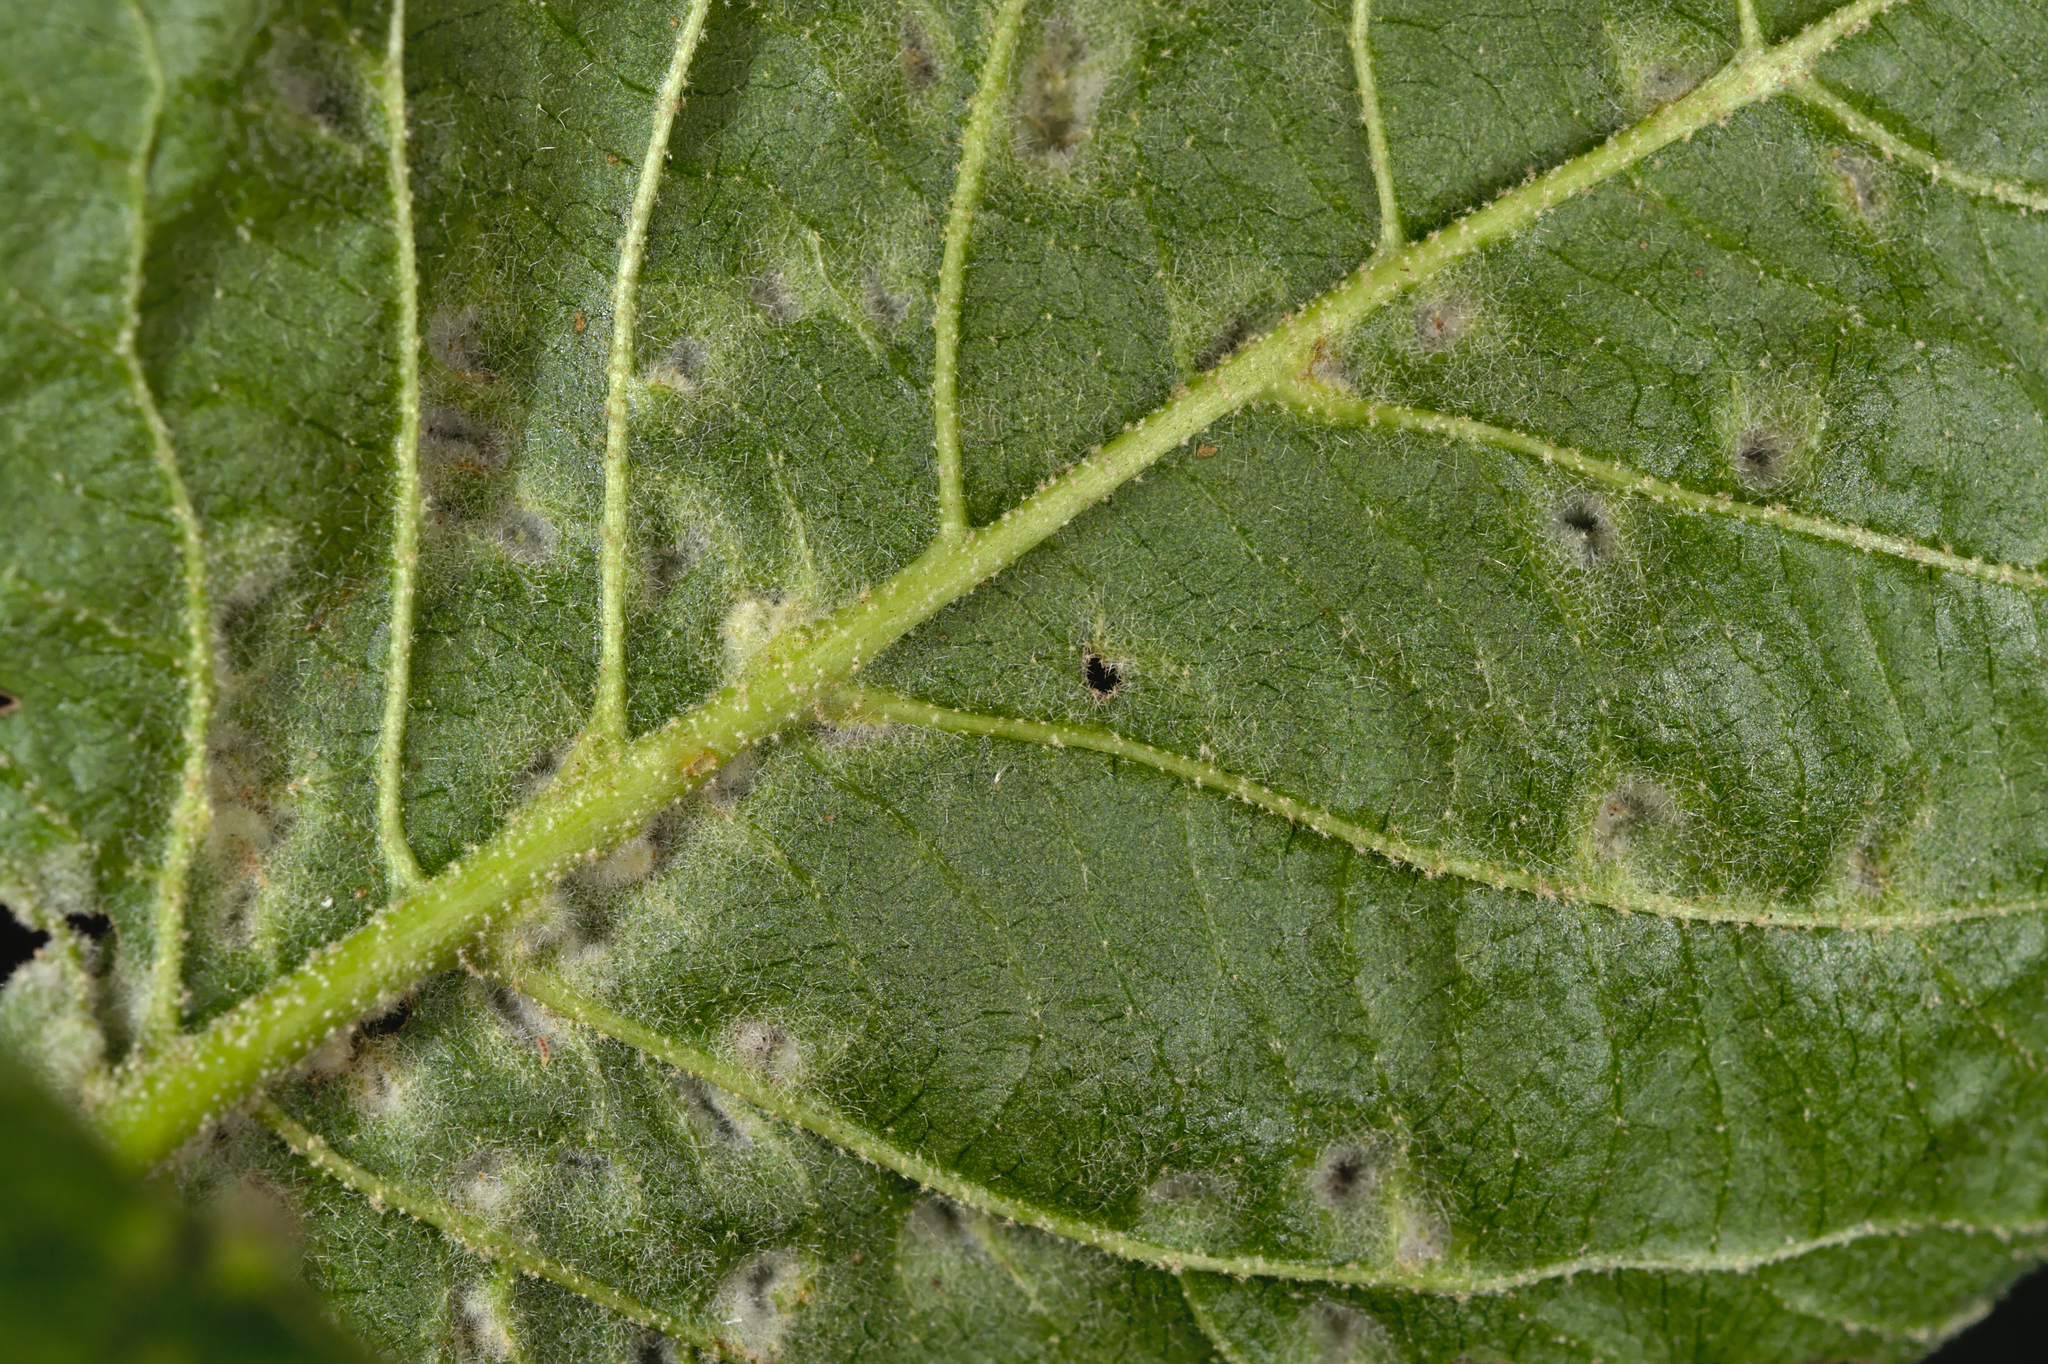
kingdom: Animalia
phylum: Arthropoda
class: Arachnida
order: Trombidiformes
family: Eriophyidae
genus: Eriophyes
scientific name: Eriophyes viburni
